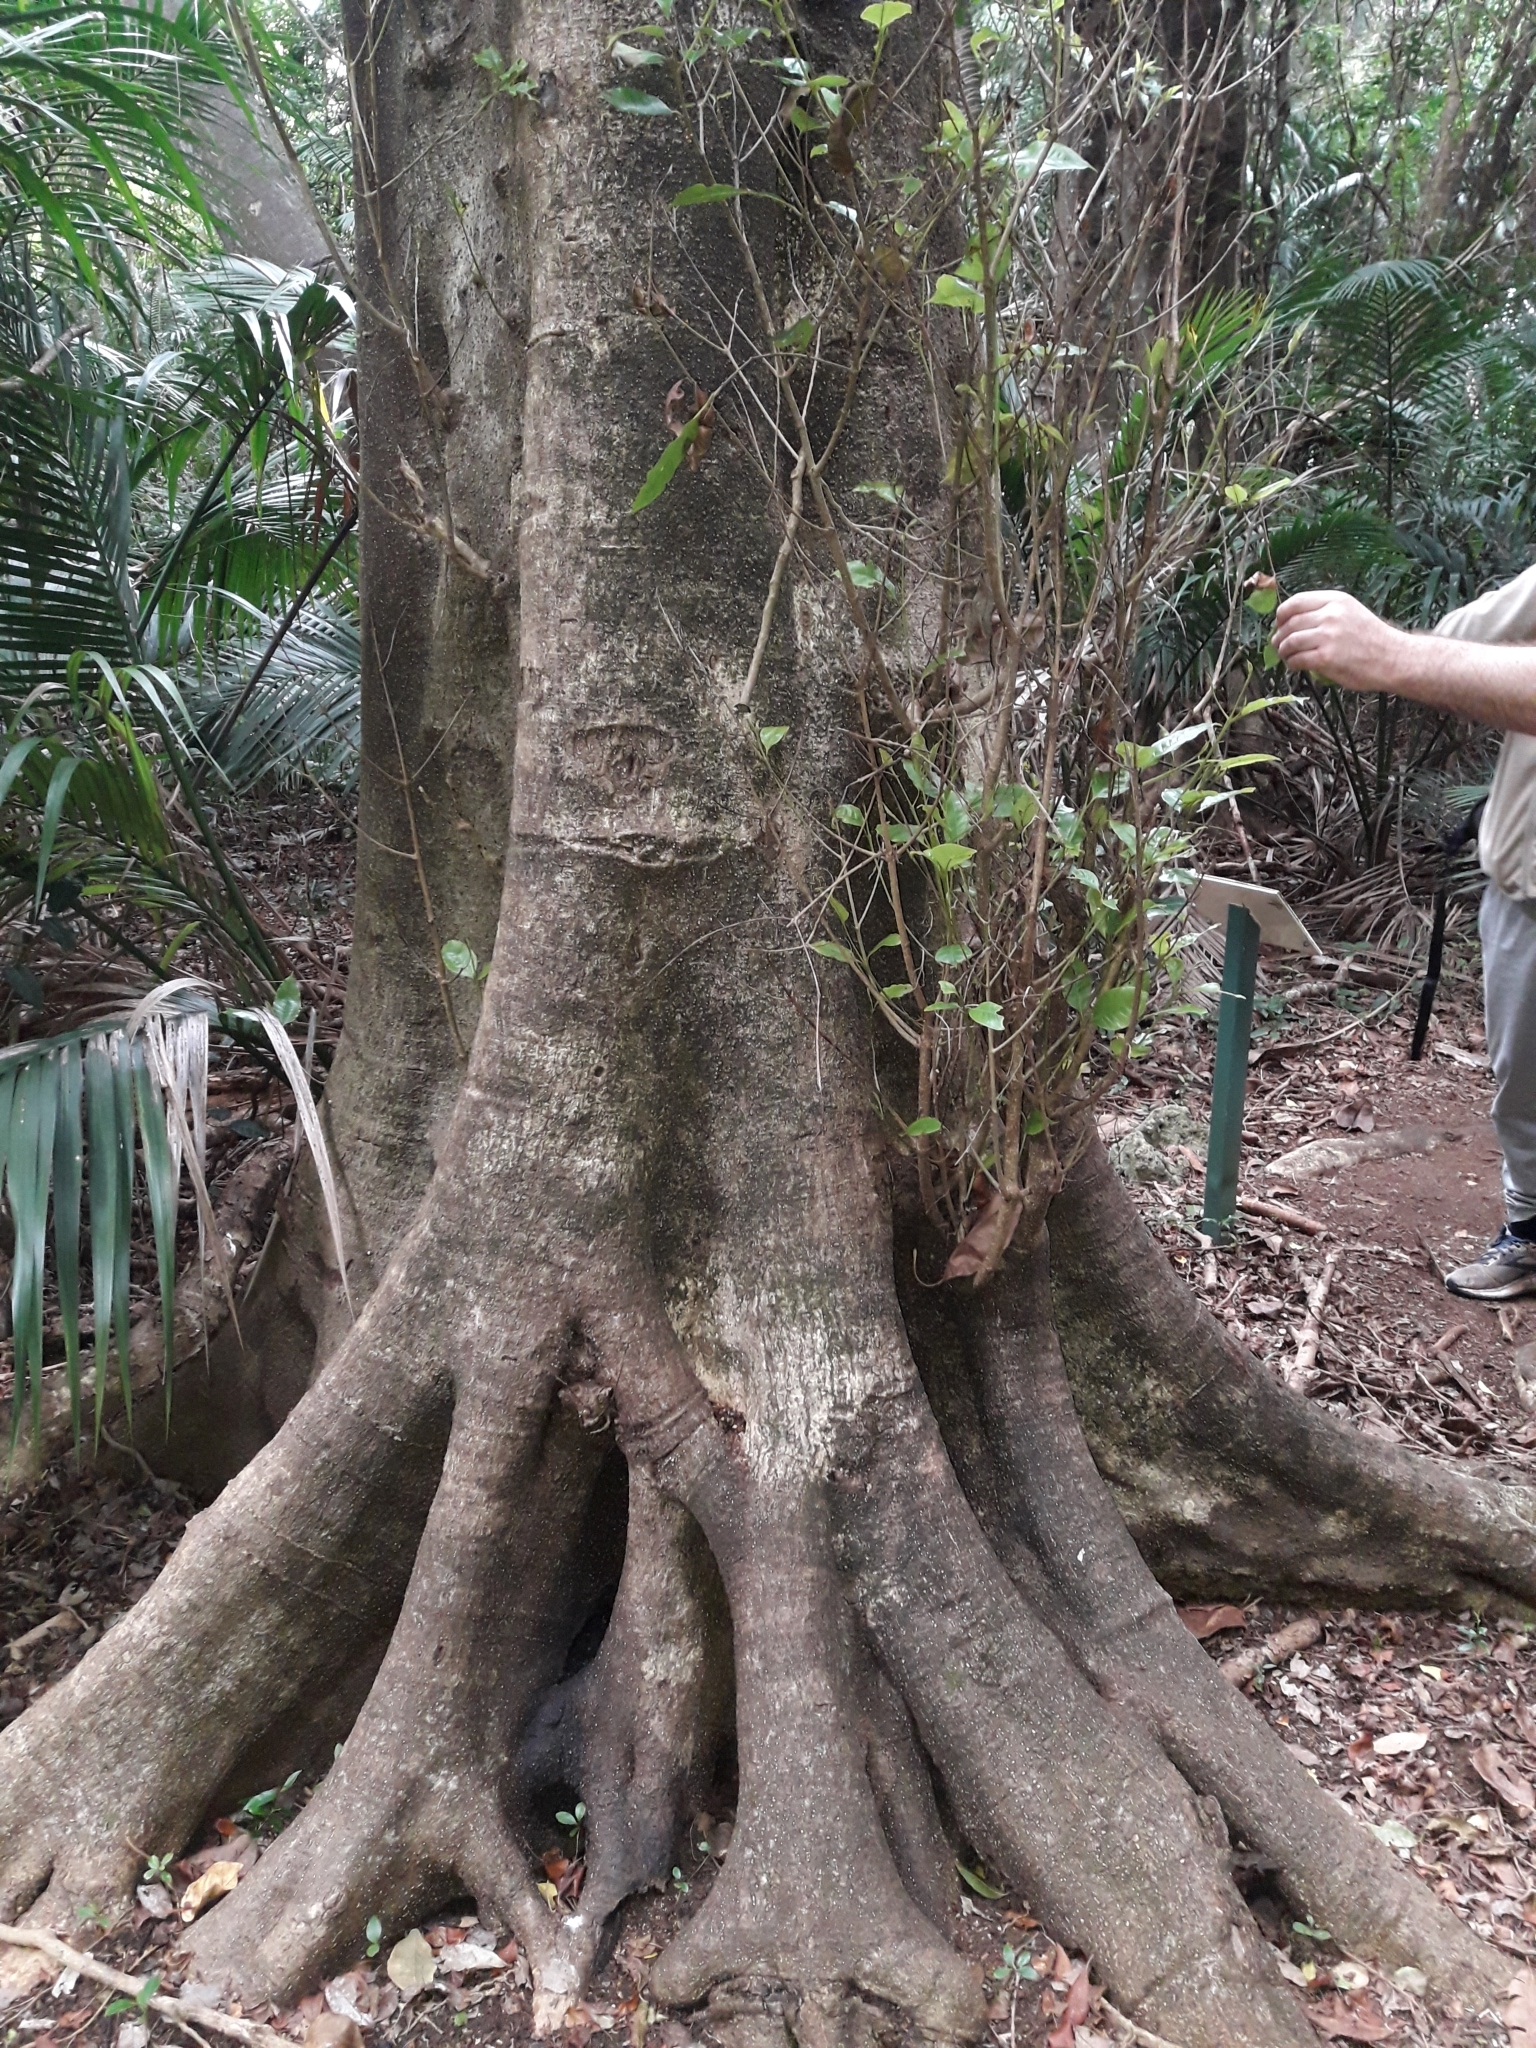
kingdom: Plantae
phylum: Tracheophyta
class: Magnoliopsida
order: Lamiales
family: Oleaceae
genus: Olea
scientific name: Olea paniculata
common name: Australian olive
